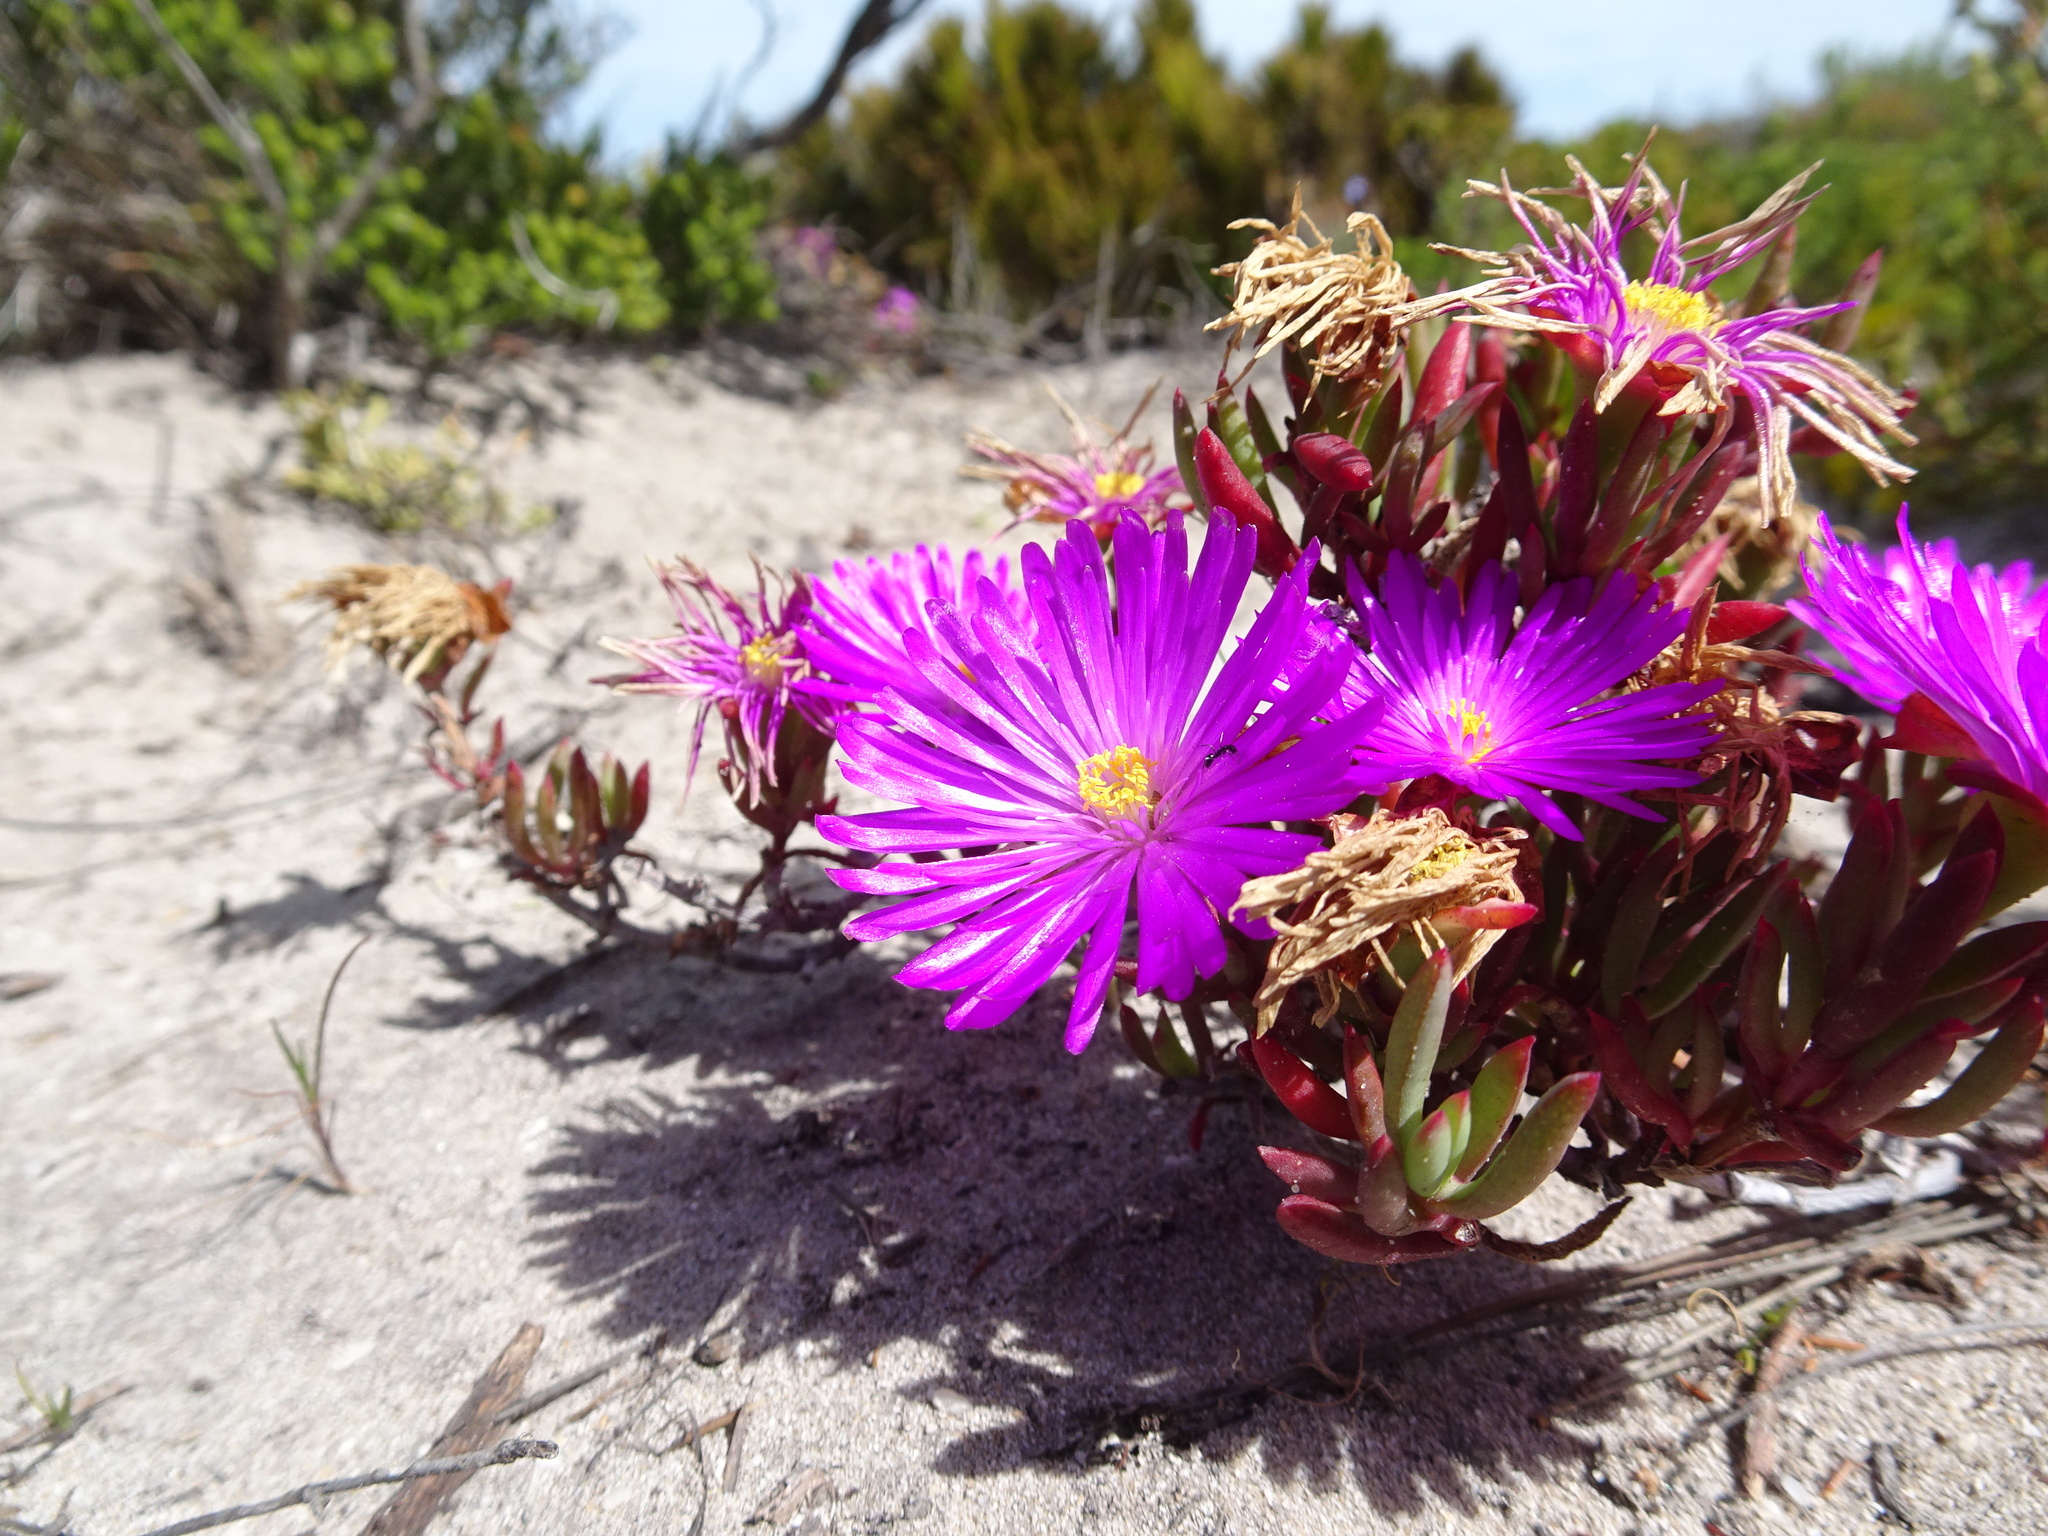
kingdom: Plantae
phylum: Tracheophyta
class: Magnoliopsida
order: Caryophyllales
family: Aizoaceae
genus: Lampranthus
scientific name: Lampranthus ceriseus
